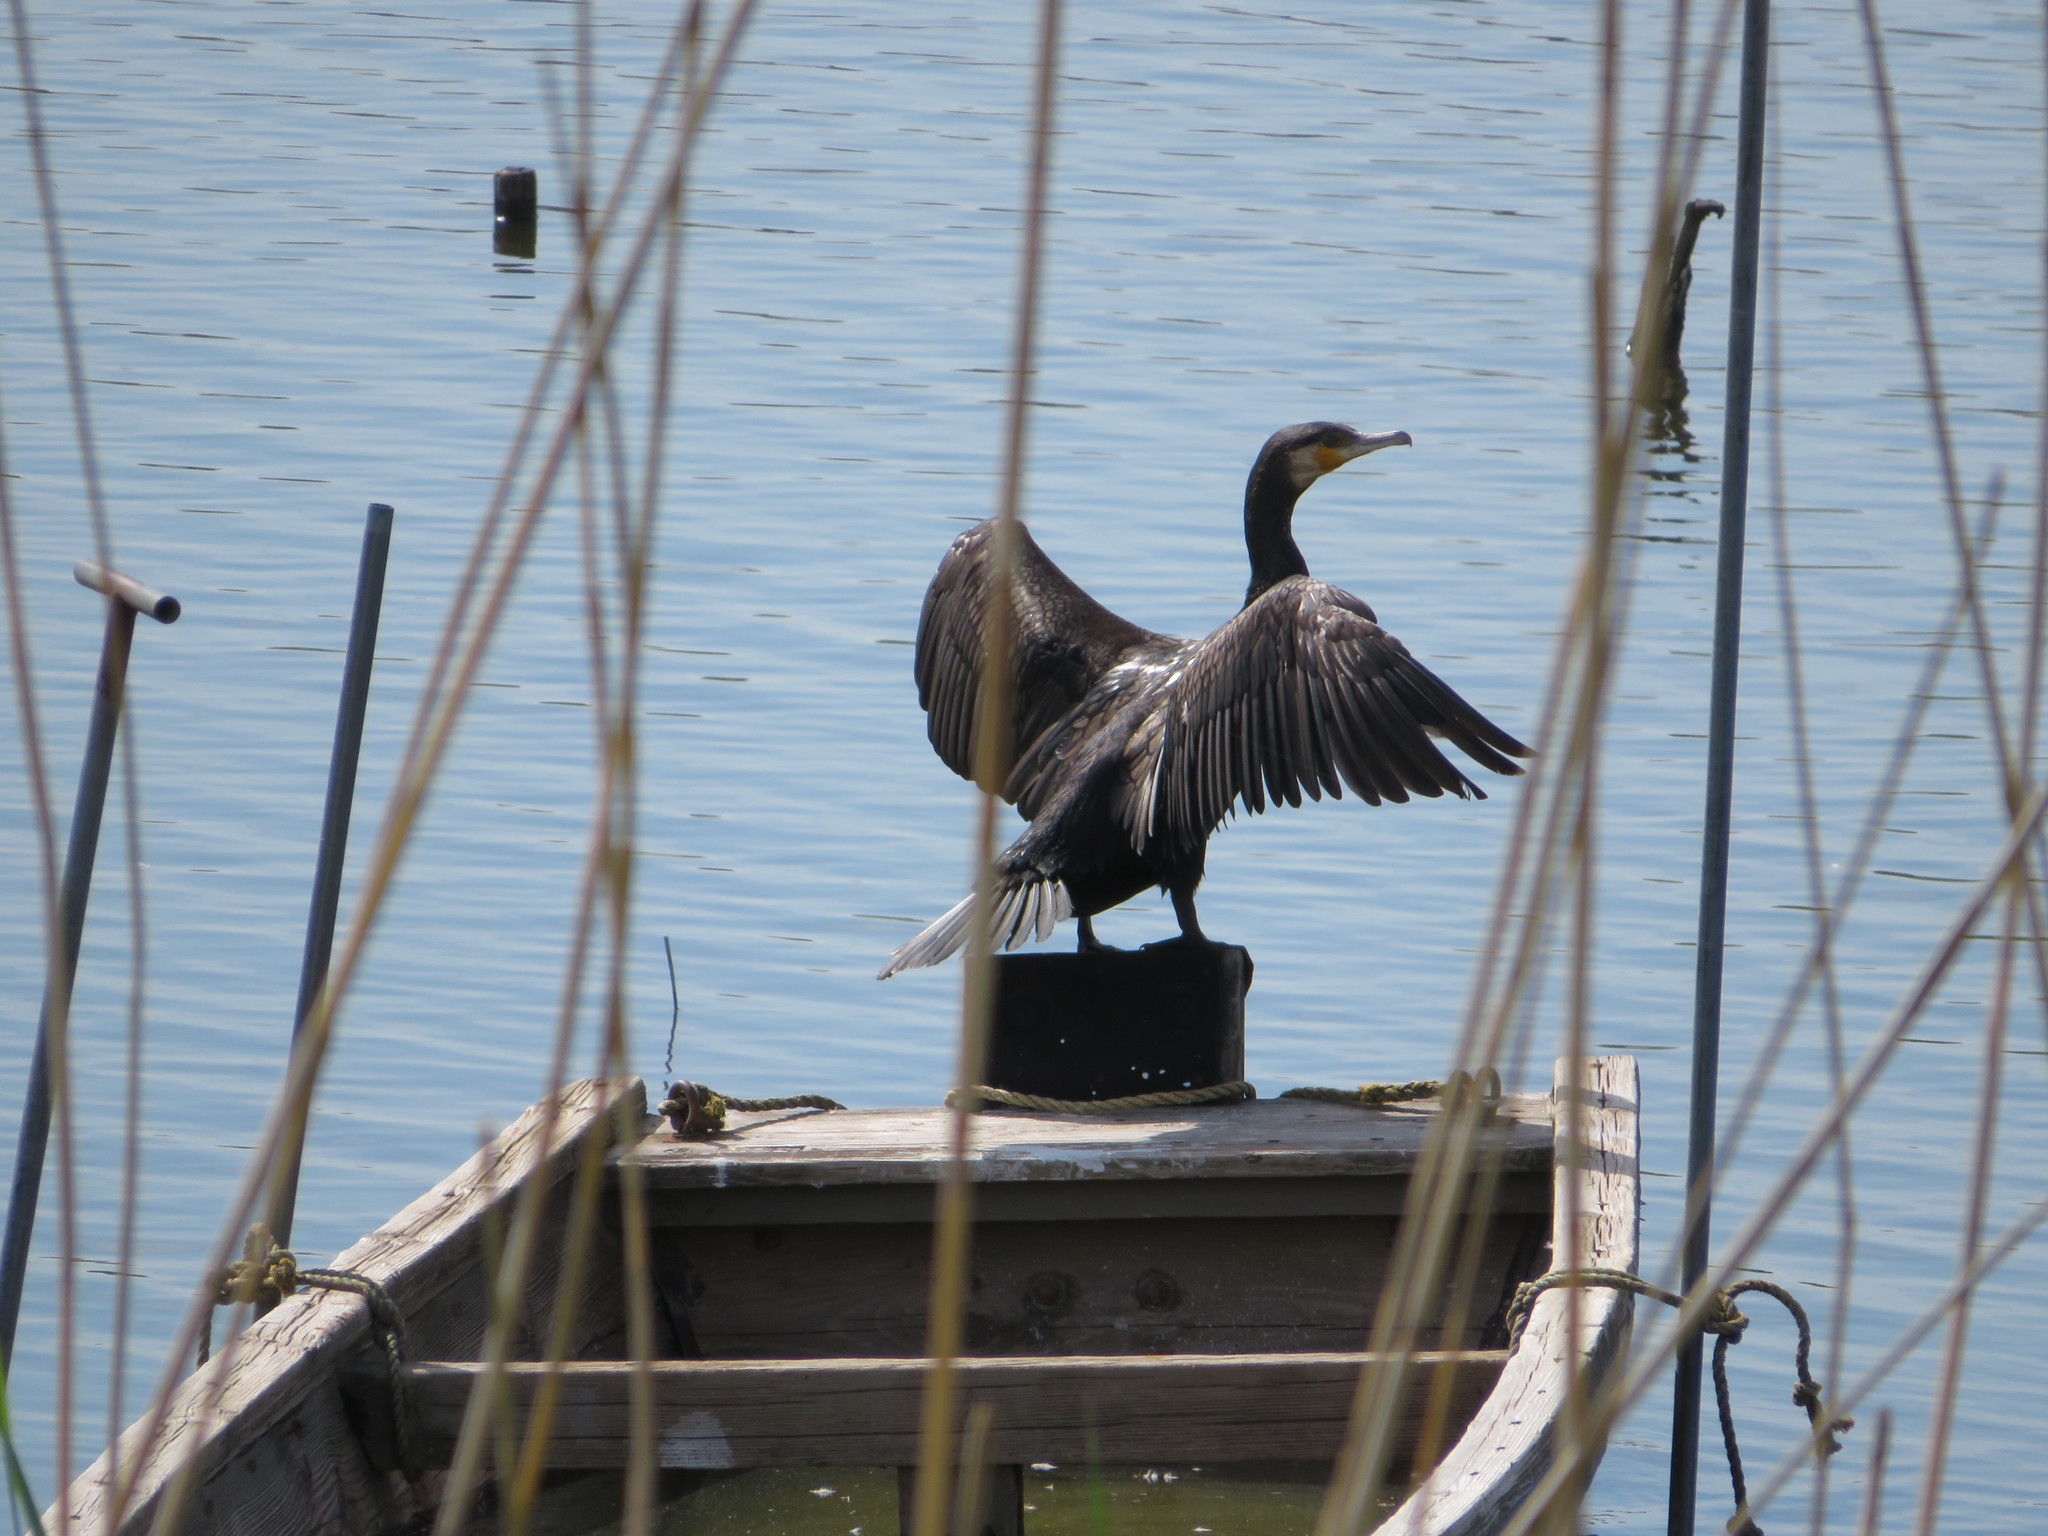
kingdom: Animalia
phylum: Chordata
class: Aves
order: Suliformes
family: Phalacrocoracidae
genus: Phalacrocorax
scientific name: Phalacrocorax carbo
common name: Great cormorant
